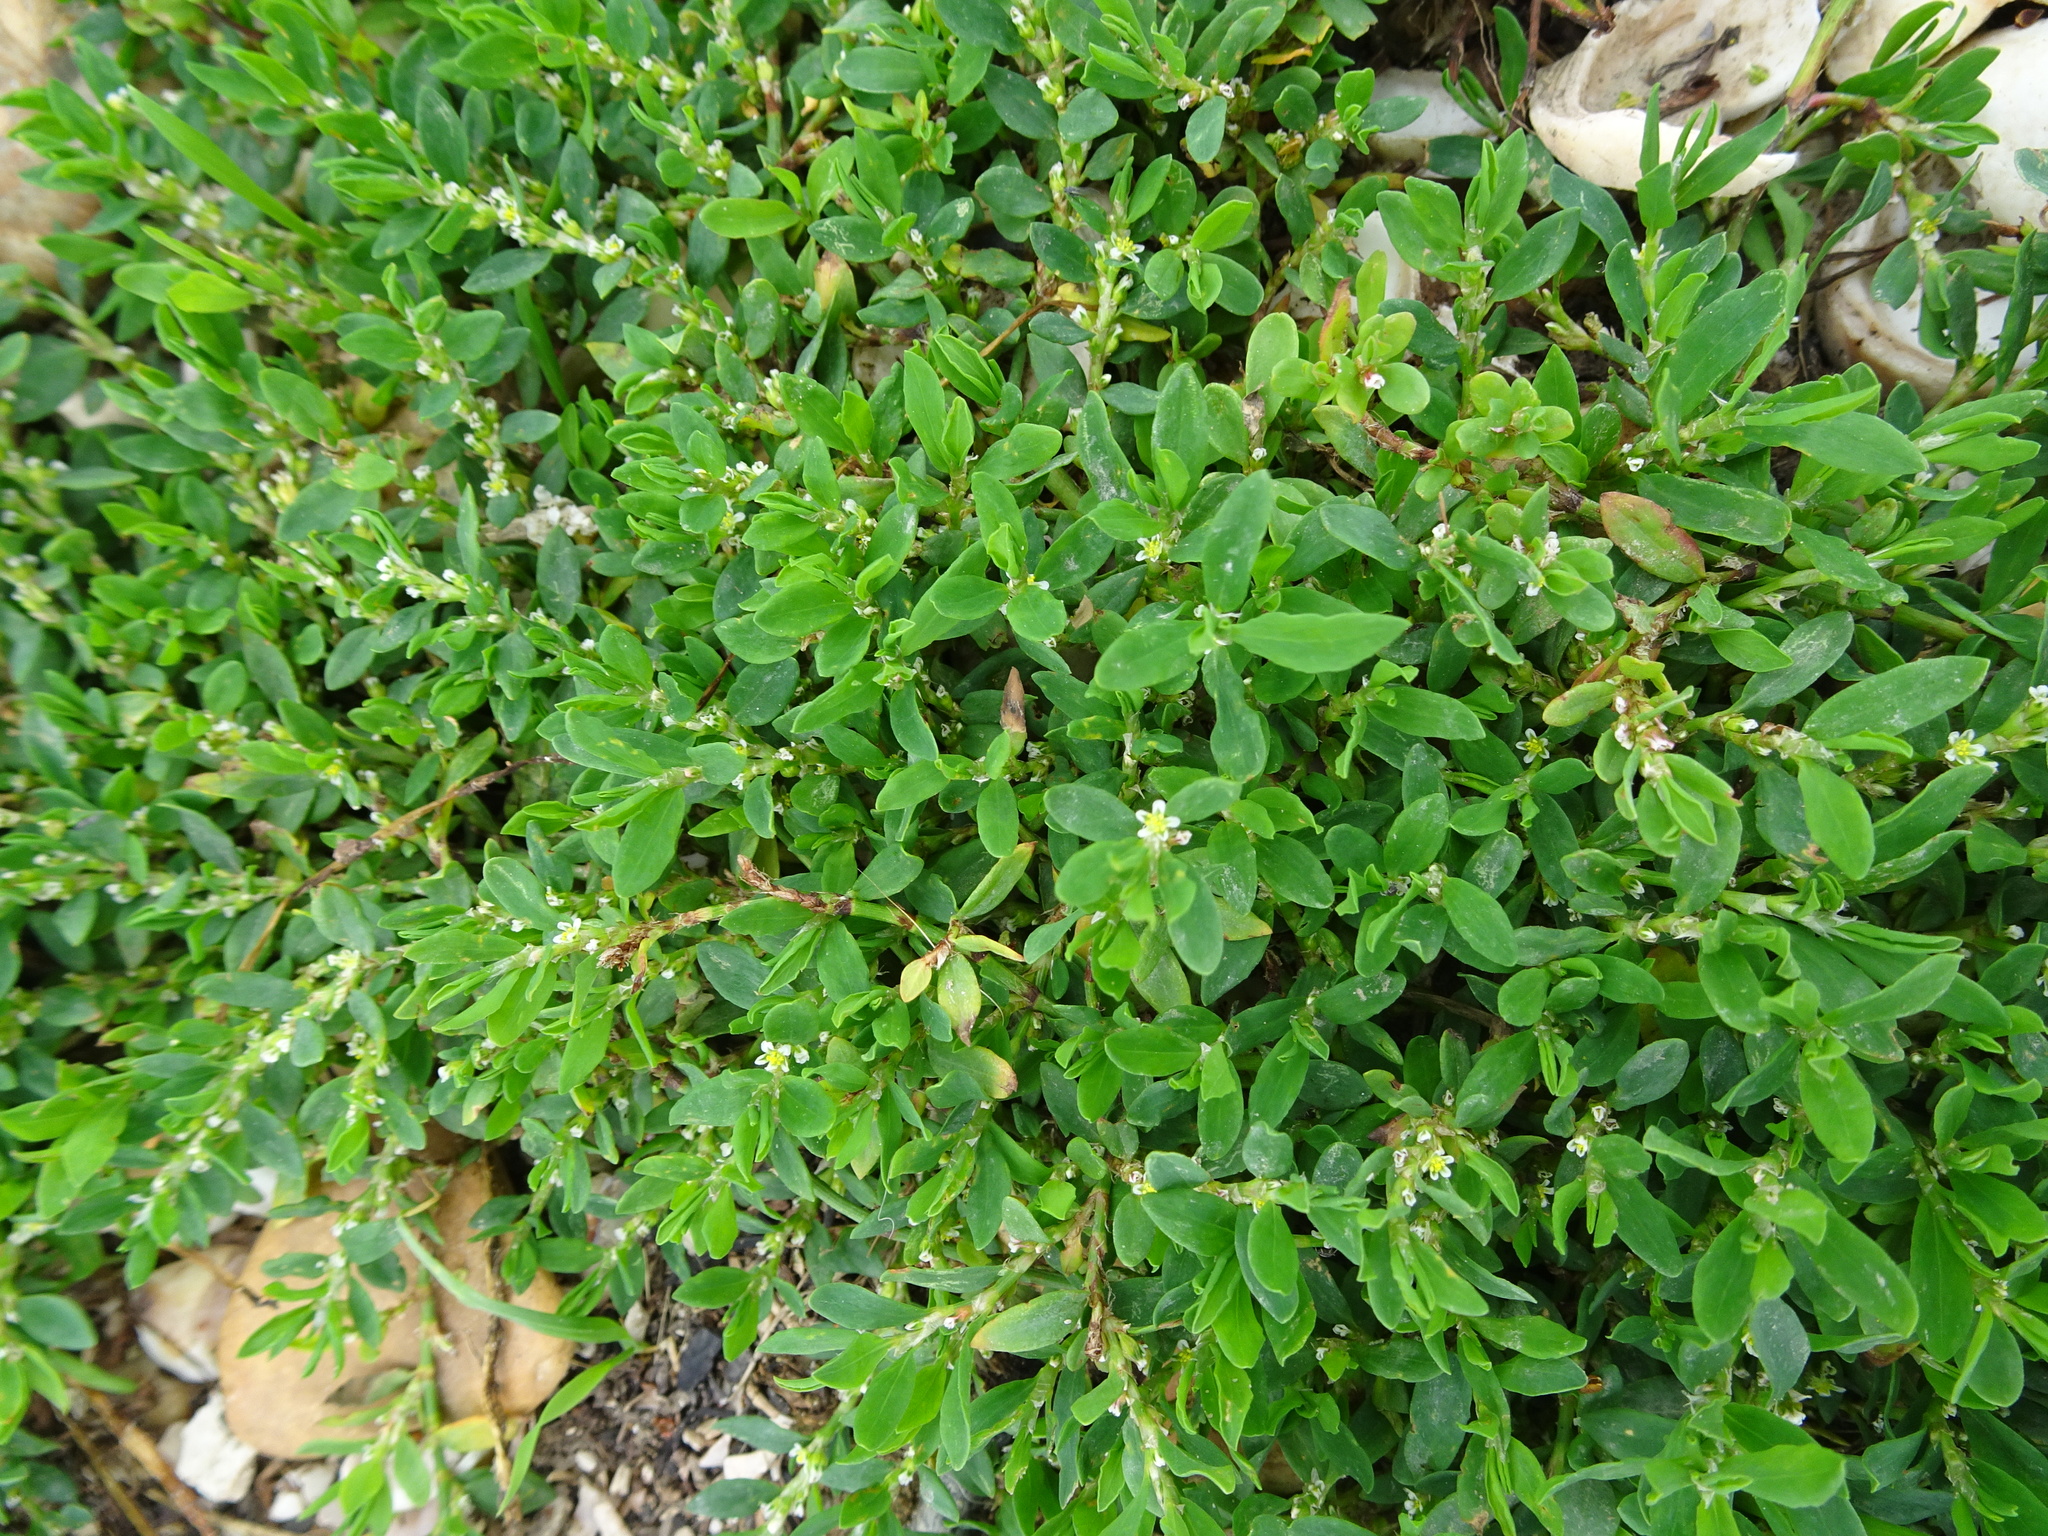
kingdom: Plantae
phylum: Tracheophyta
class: Magnoliopsida
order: Caryophyllales
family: Polygonaceae
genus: Polygonum
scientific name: Polygonum aviculare
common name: Prostrate knotweed
